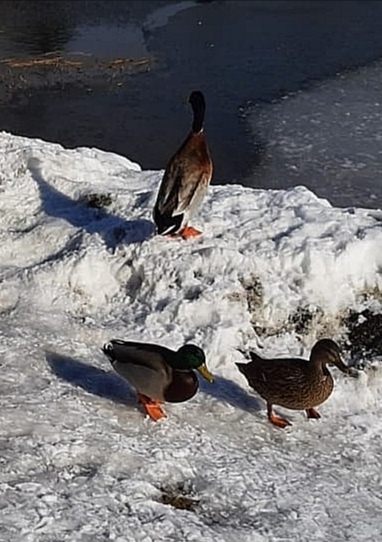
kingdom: Animalia
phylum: Chordata
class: Aves
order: Anseriformes
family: Anatidae
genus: Anas
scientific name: Anas platyrhynchos
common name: Mallard
